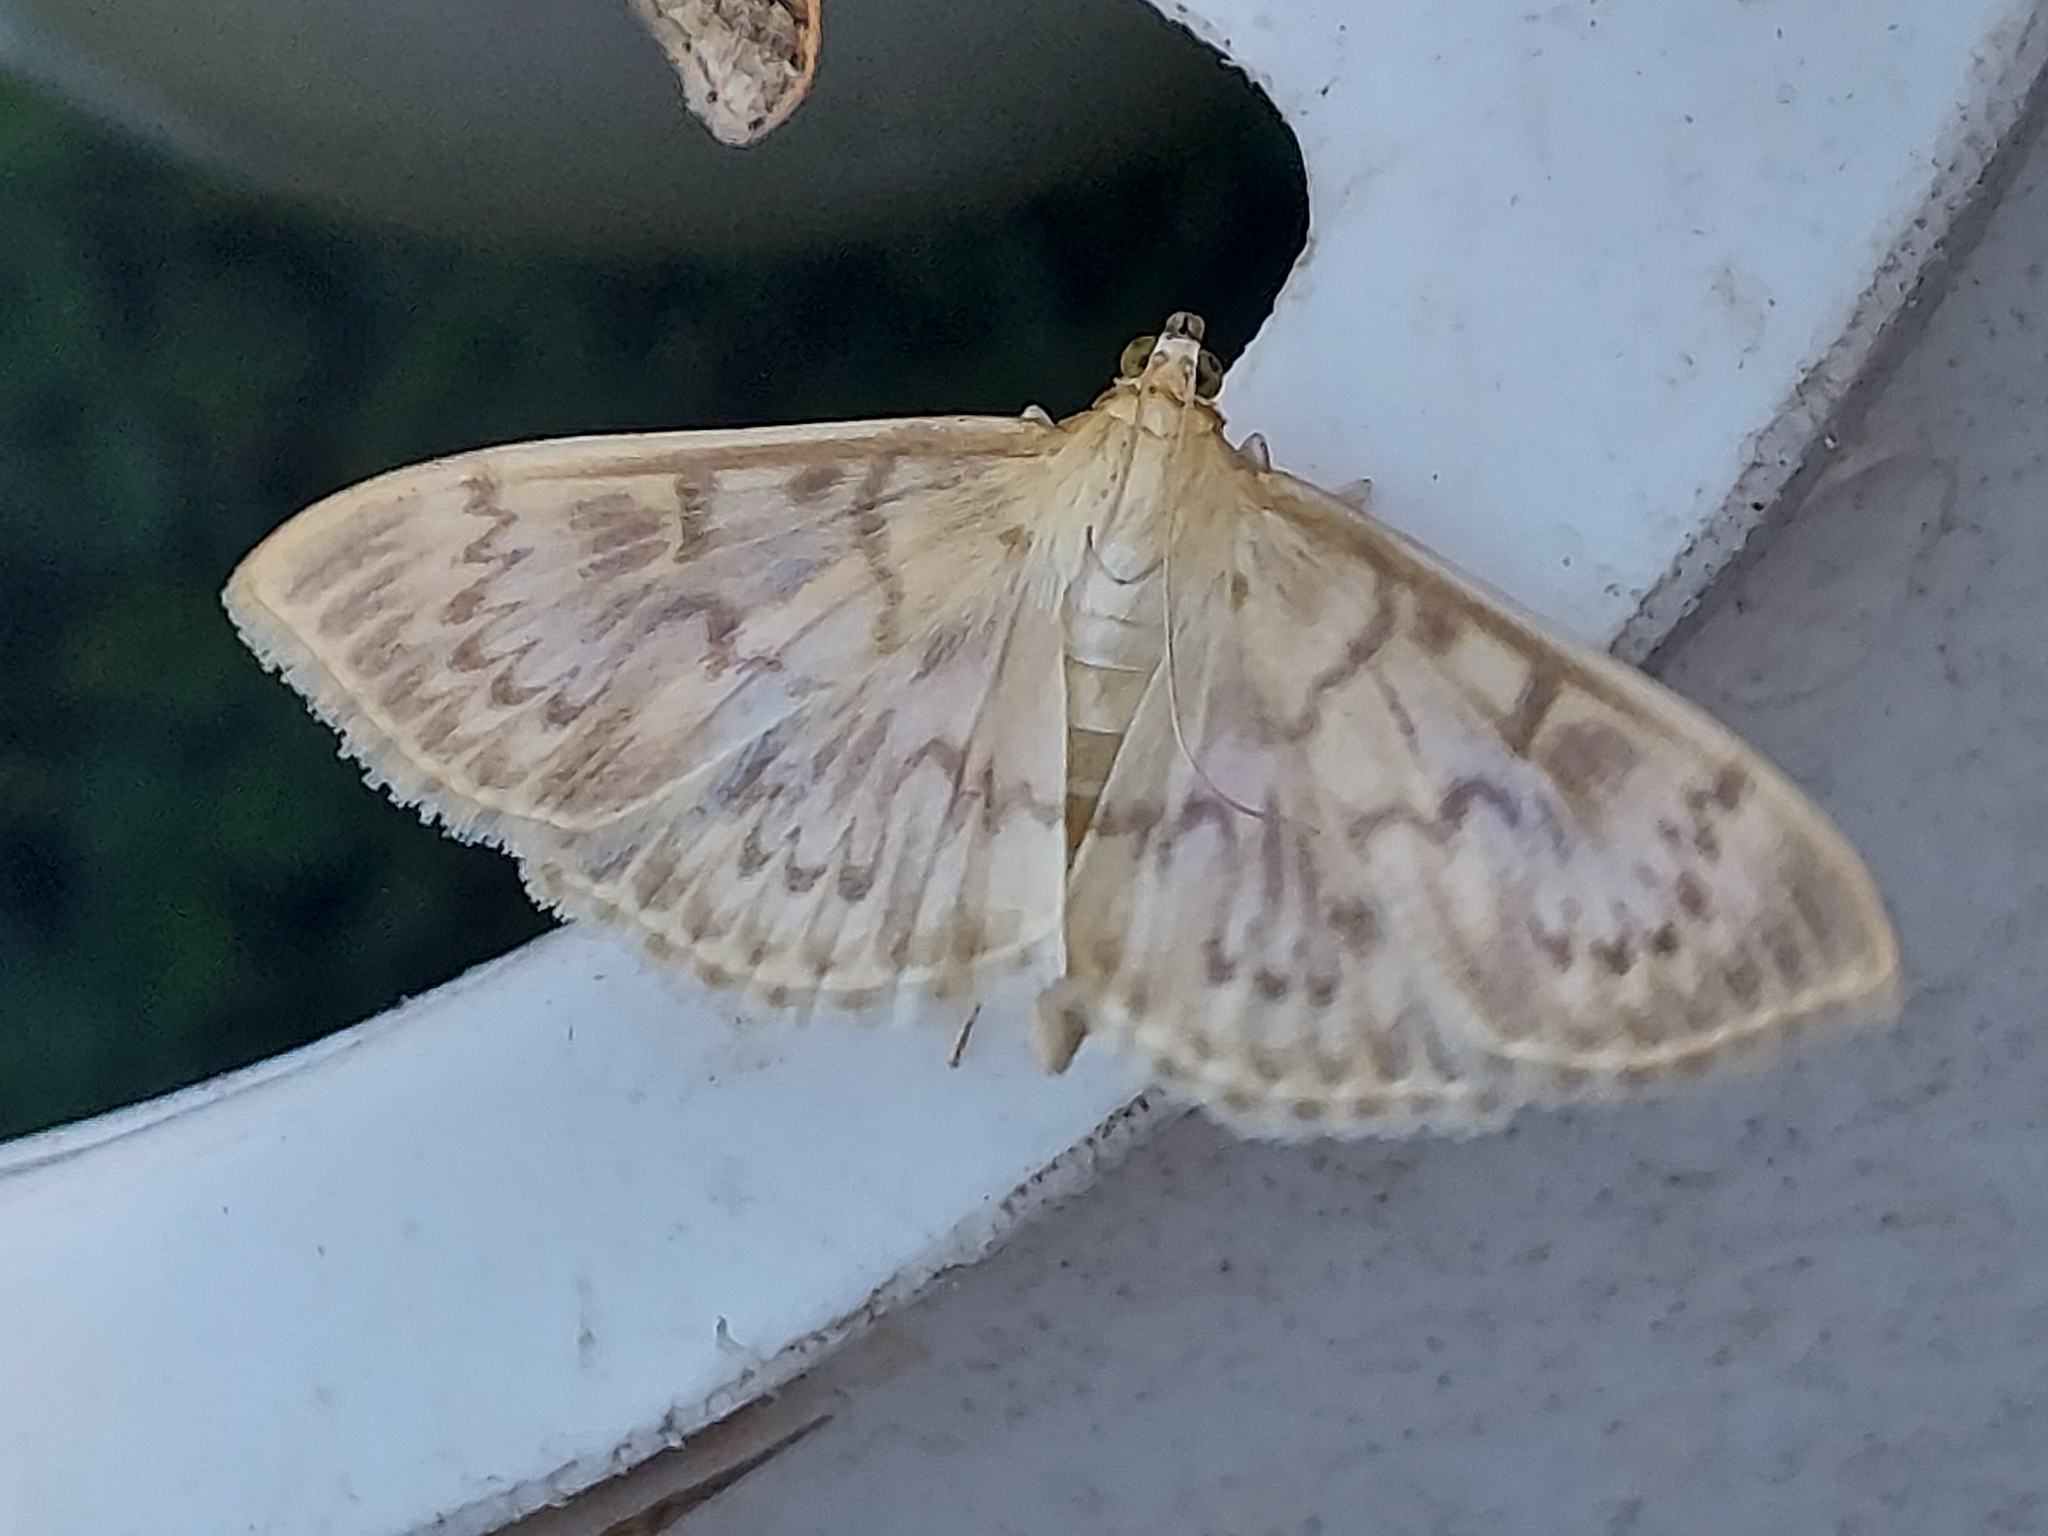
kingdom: Animalia
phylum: Arthropoda
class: Insecta
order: Lepidoptera
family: Crambidae
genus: Patania
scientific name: Patania ruralis
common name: Mother of pearl
